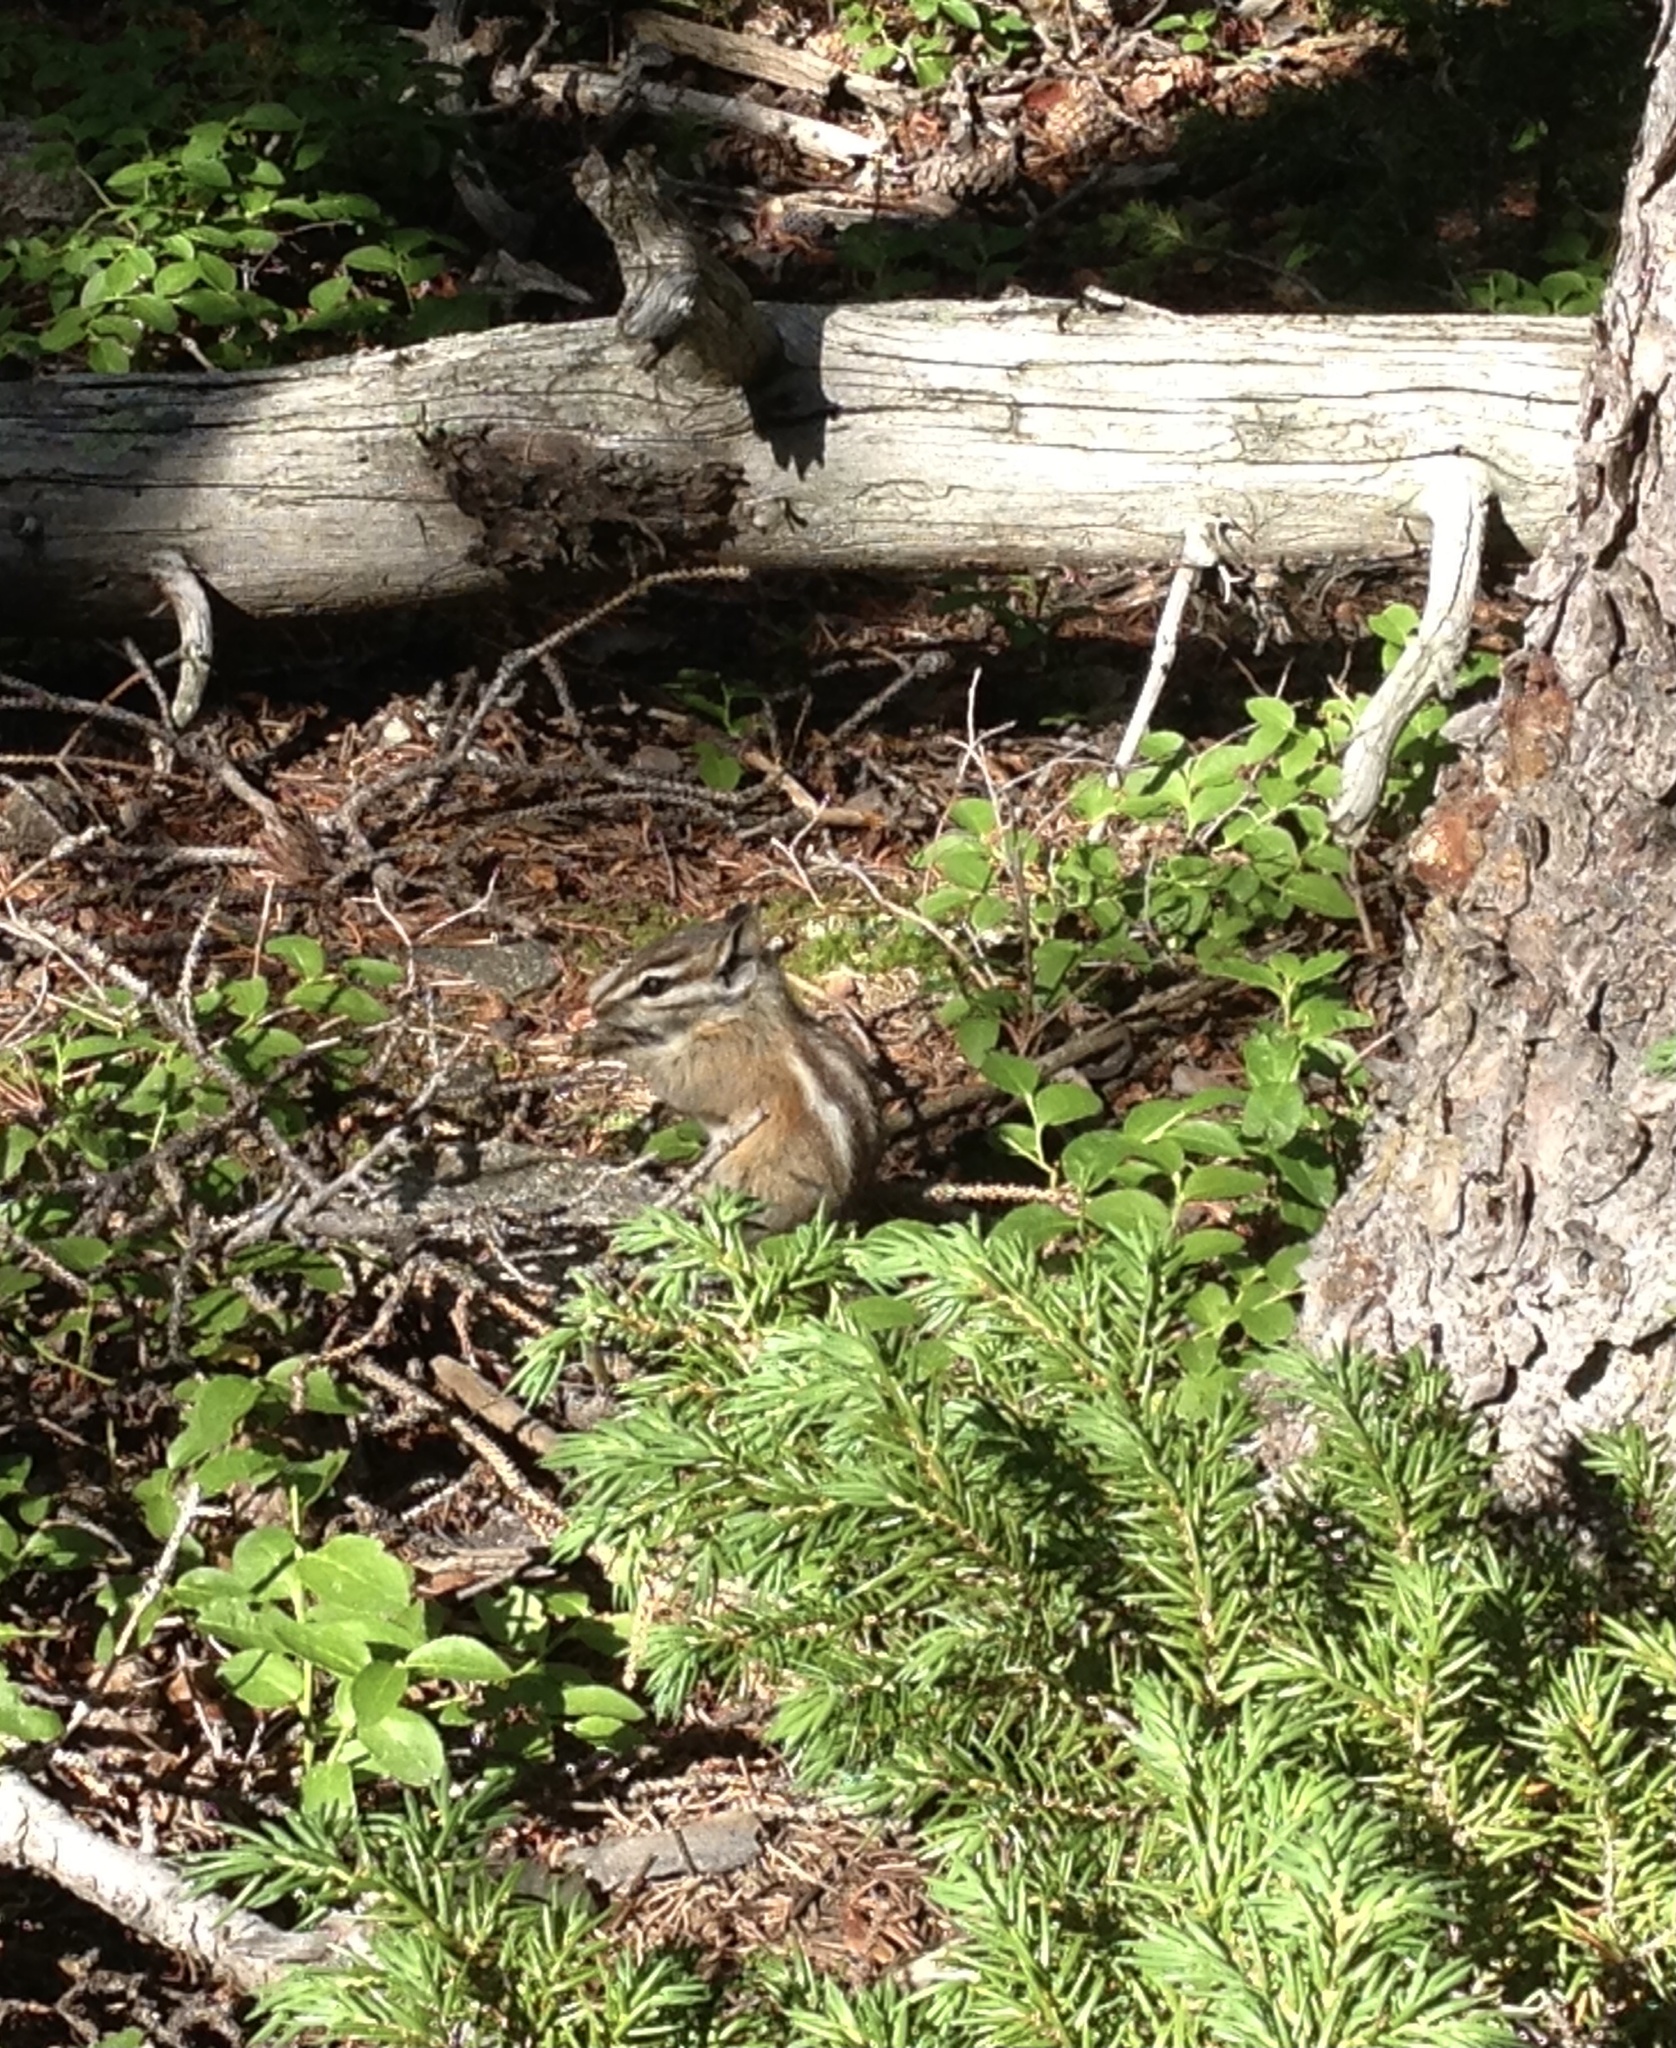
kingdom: Animalia
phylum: Chordata
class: Mammalia
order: Rodentia
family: Sciuridae
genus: Tamias
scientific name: Tamias minimus
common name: Least chipmunk
